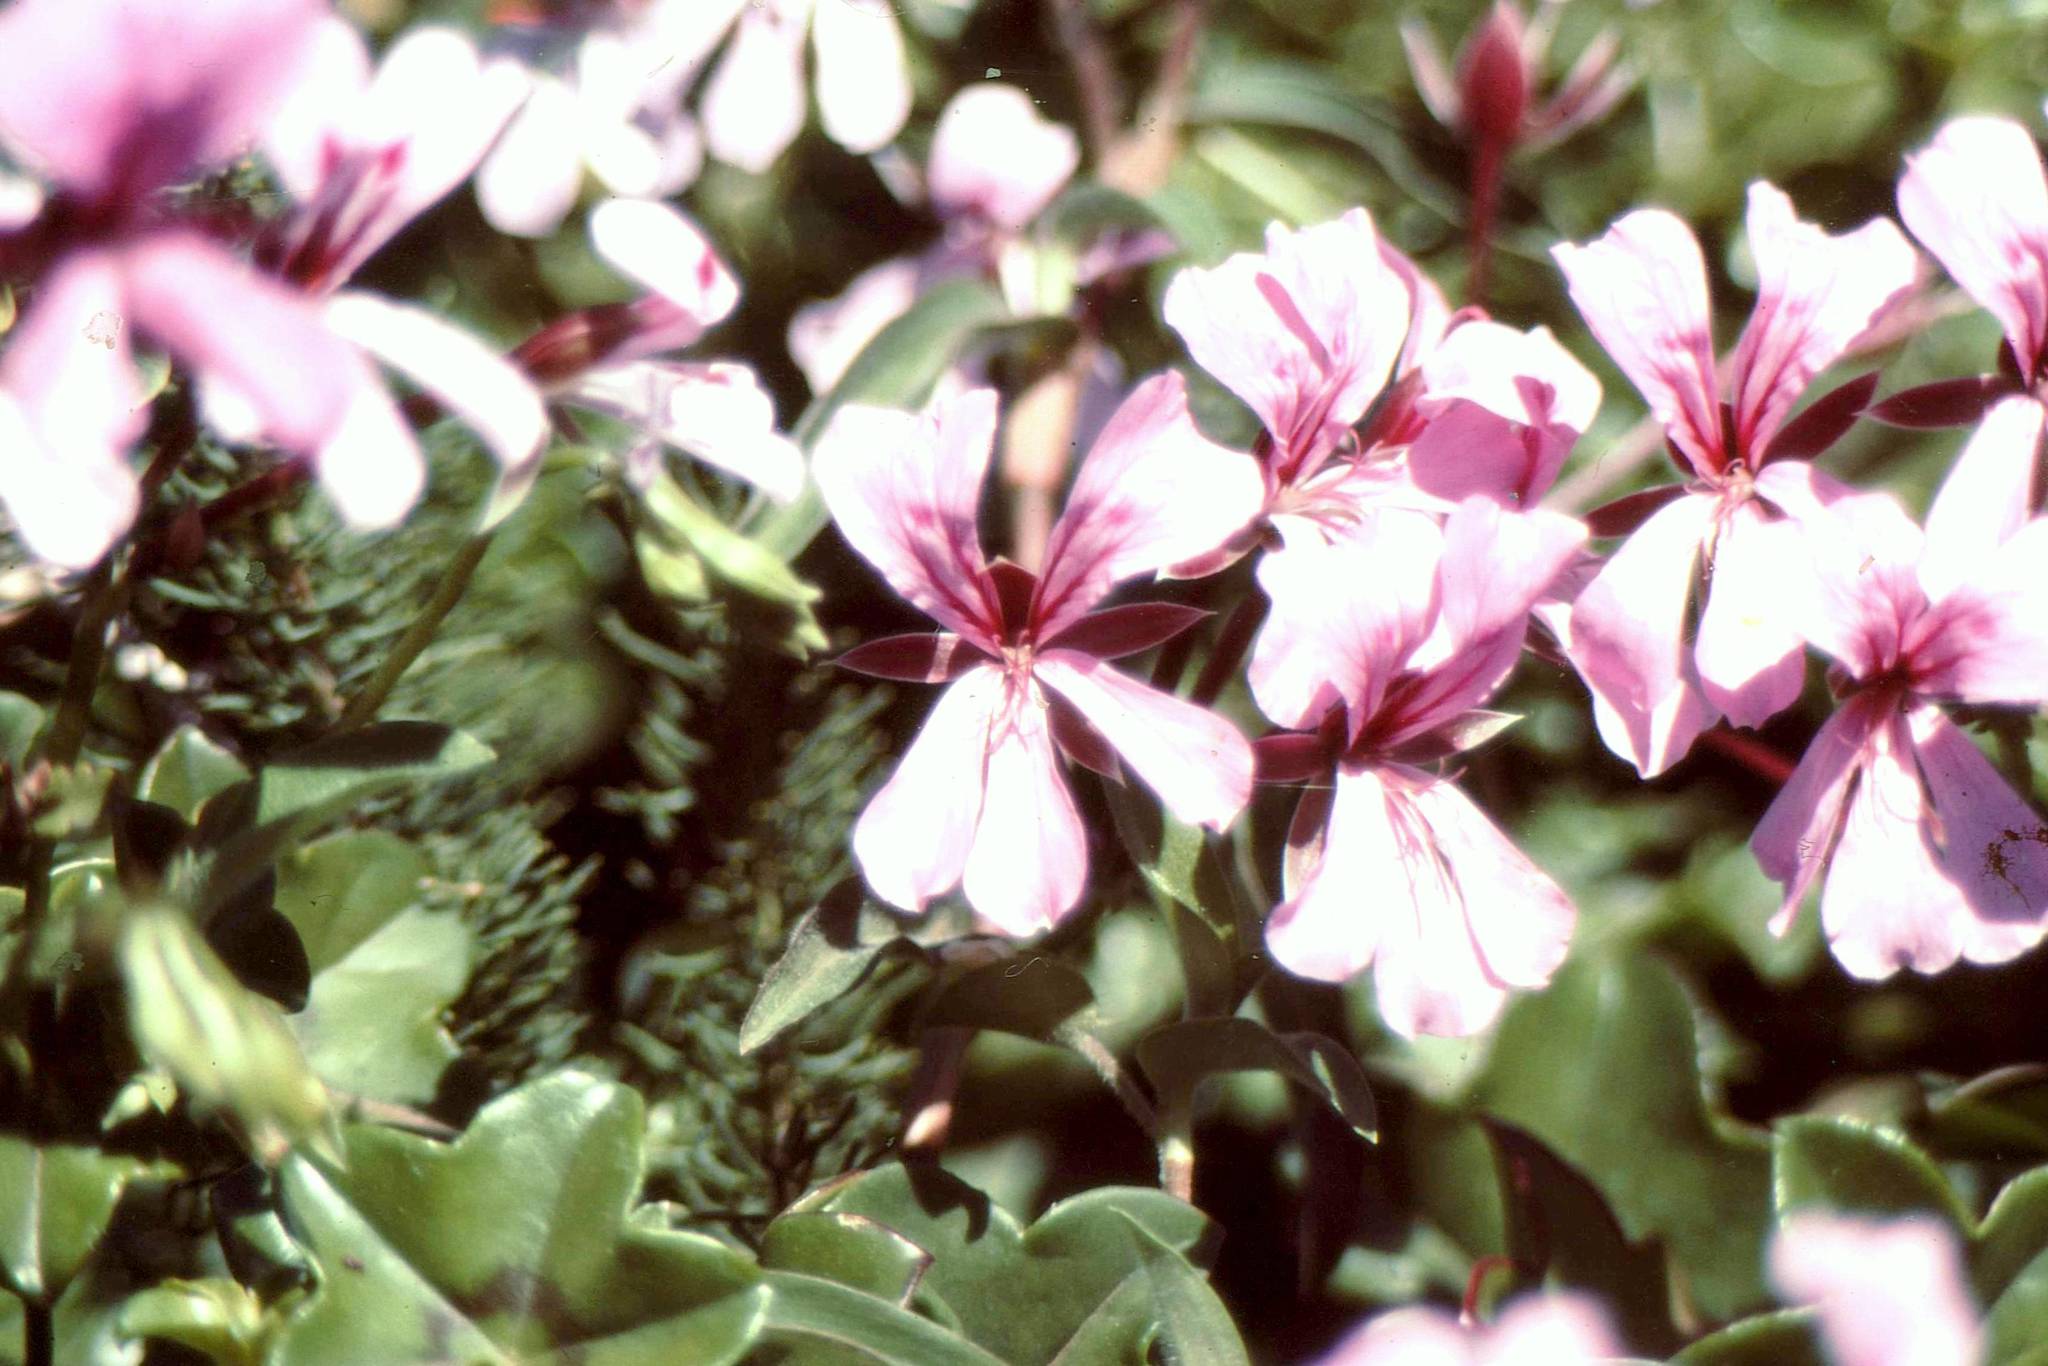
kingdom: Plantae
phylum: Tracheophyta
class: Magnoliopsida
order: Geraniales
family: Geraniaceae
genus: Pelargonium
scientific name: Pelargonium peltatum
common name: Ivyleaf geranium
